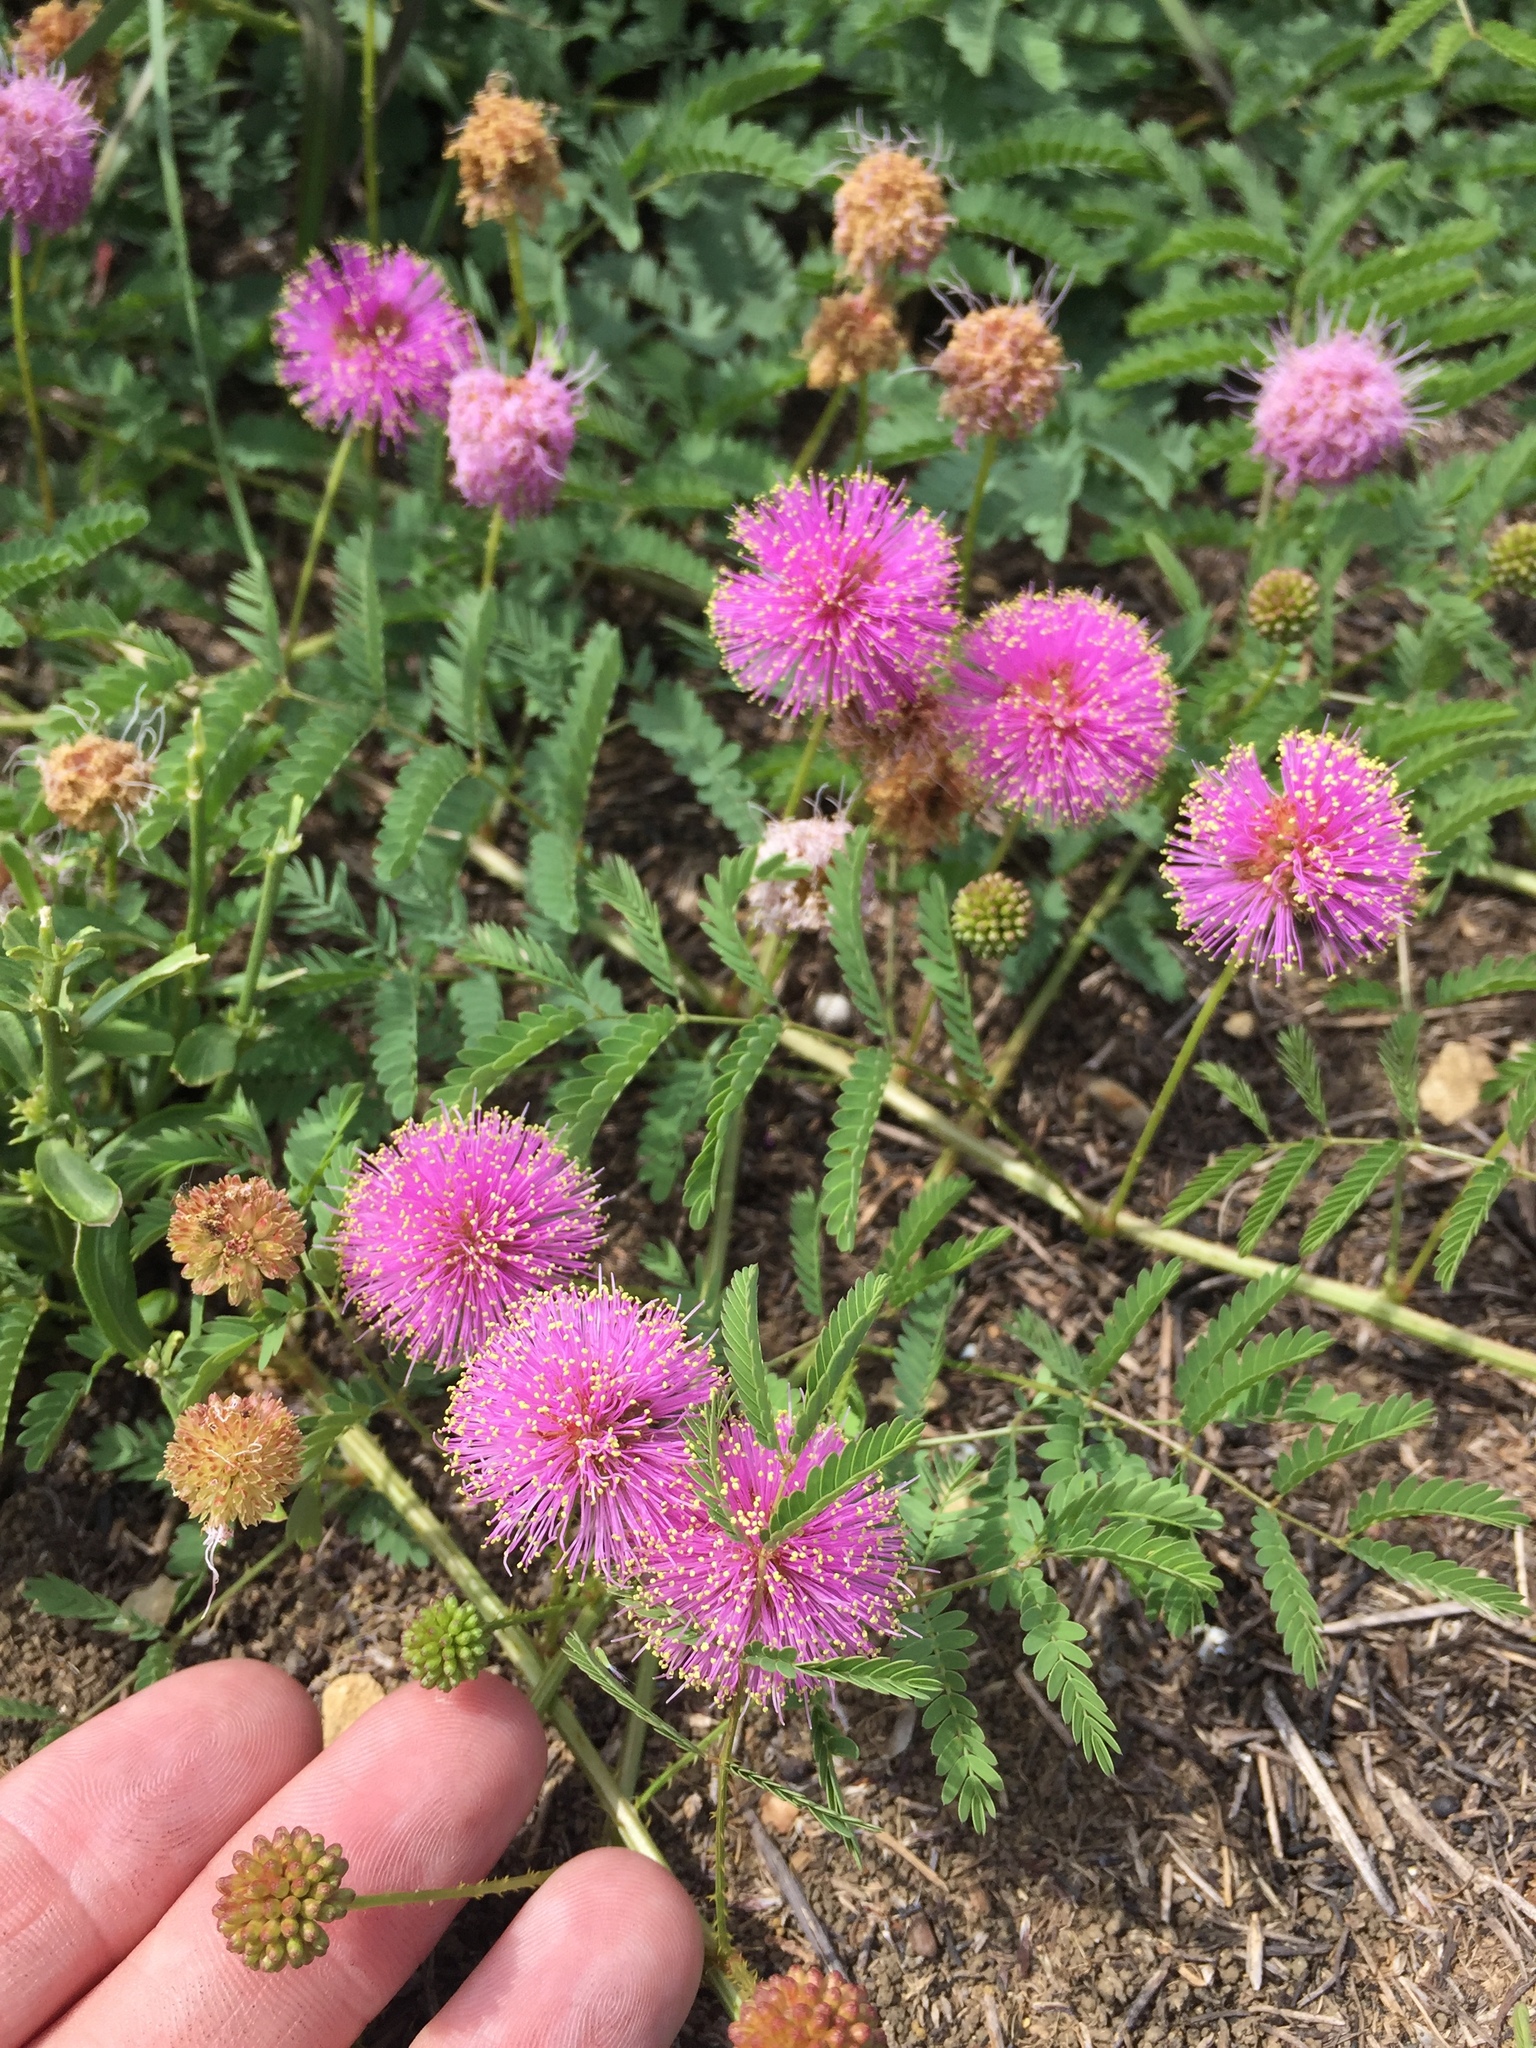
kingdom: Plantae
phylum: Tracheophyta
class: Magnoliopsida
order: Fabales
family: Fabaceae
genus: Mimosa
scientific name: Mimosa quadrivalvis
